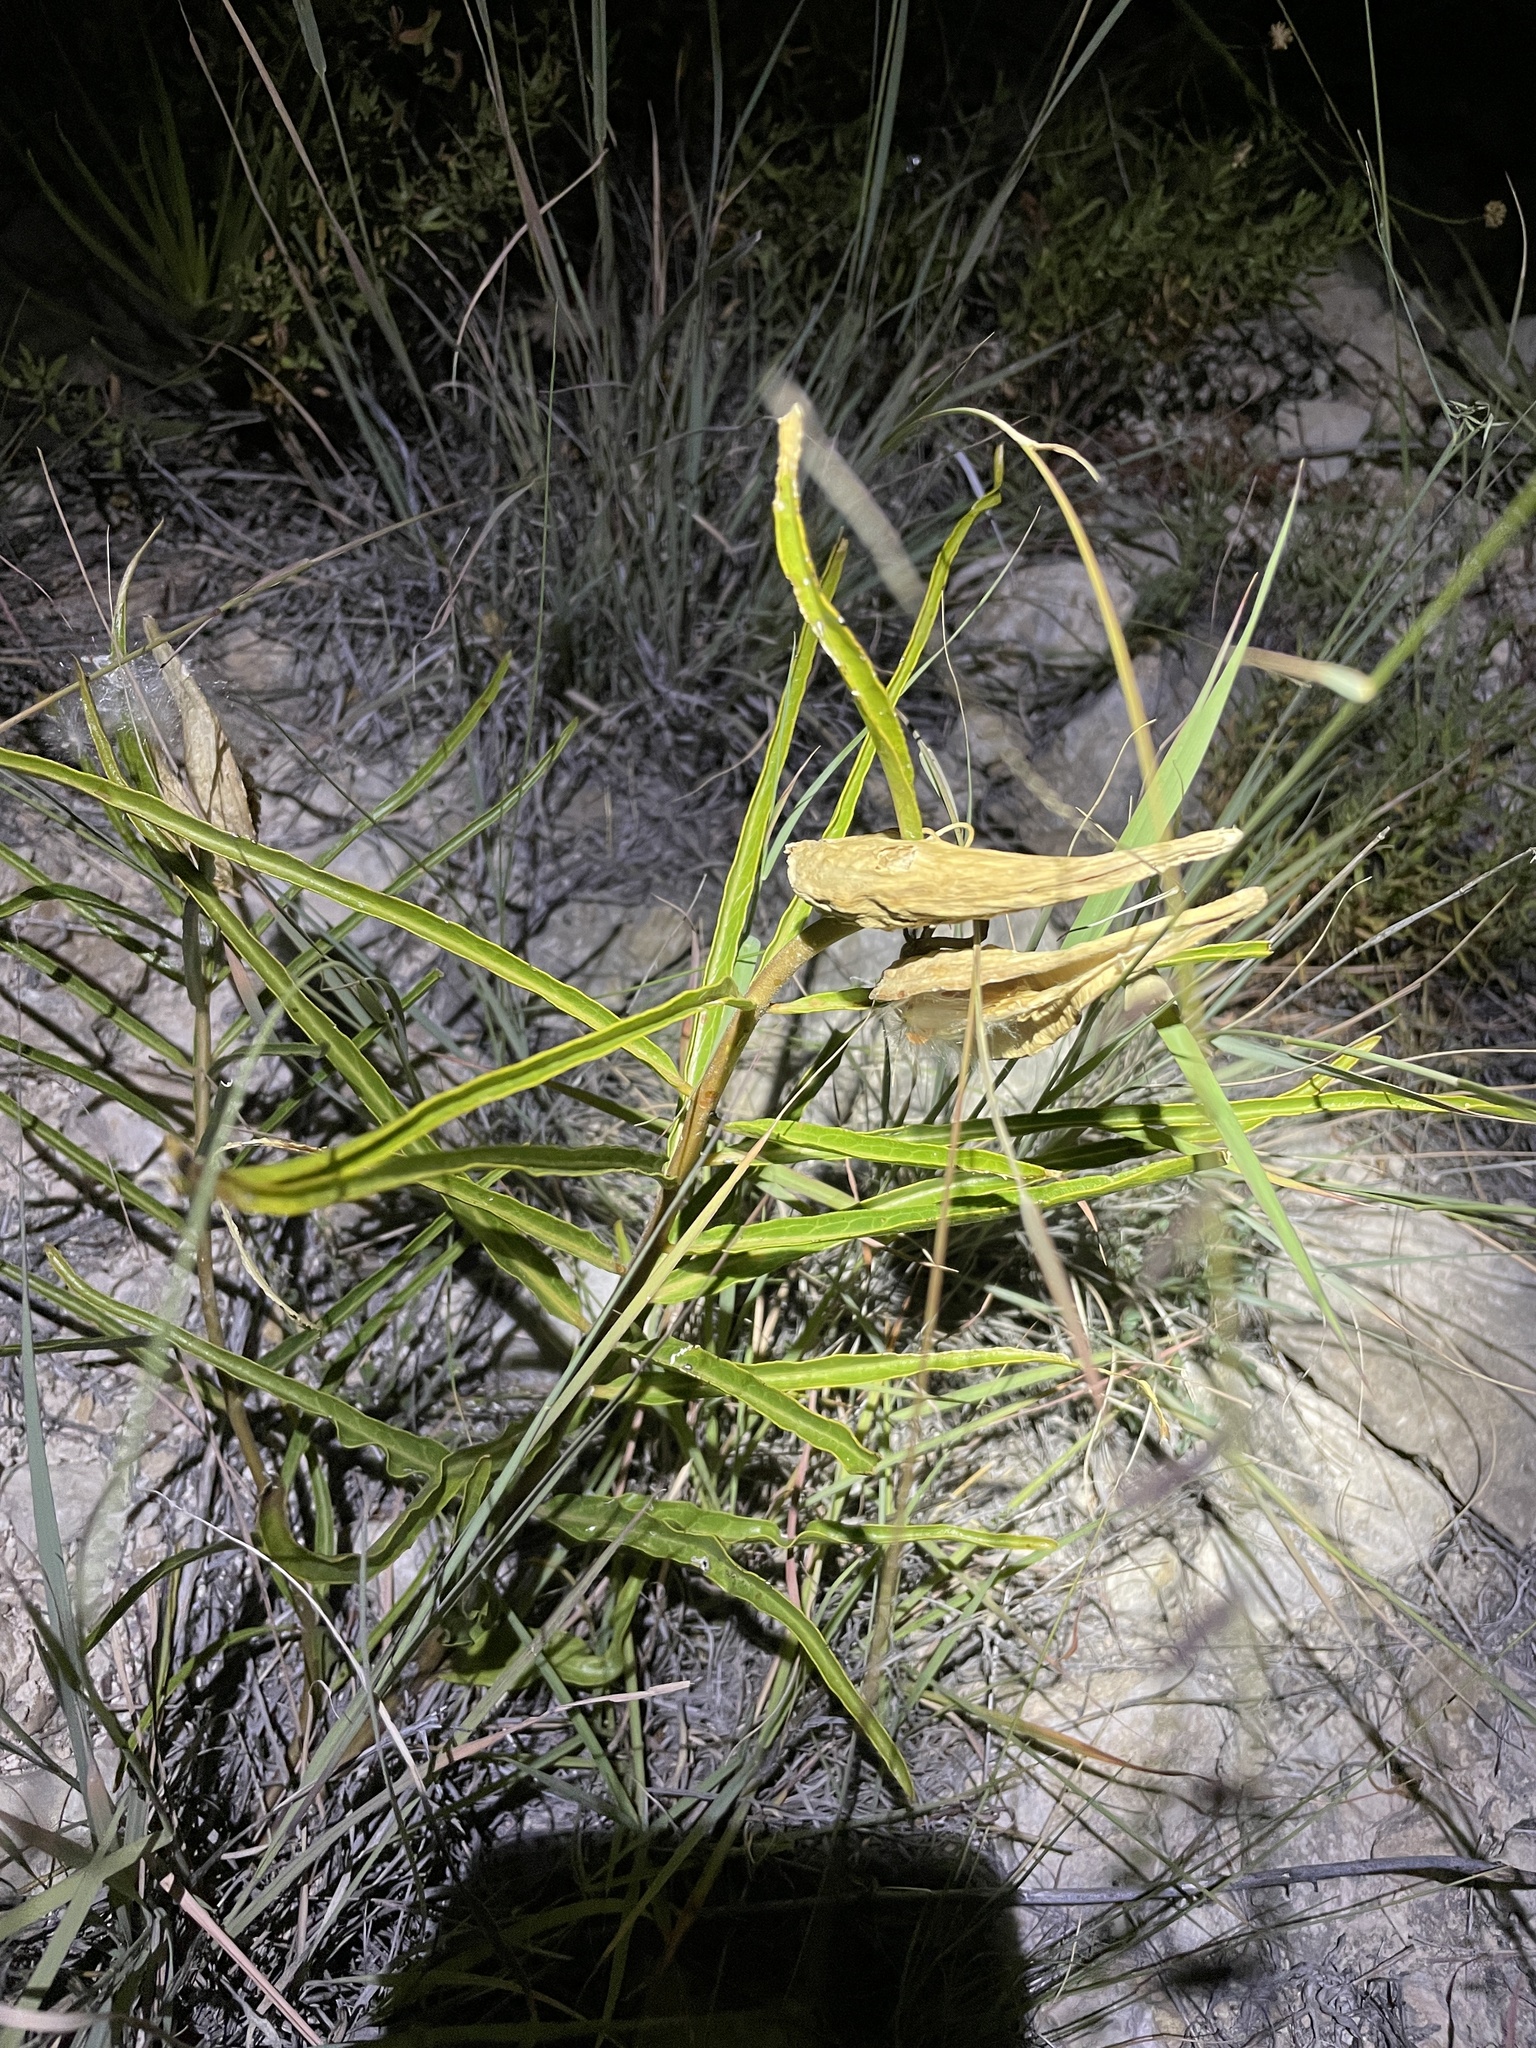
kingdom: Plantae
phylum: Tracheophyta
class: Magnoliopsida
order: Gentianales
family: Apocynaceae
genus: Asclepias
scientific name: Asclepias asperula
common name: Antelope horns
